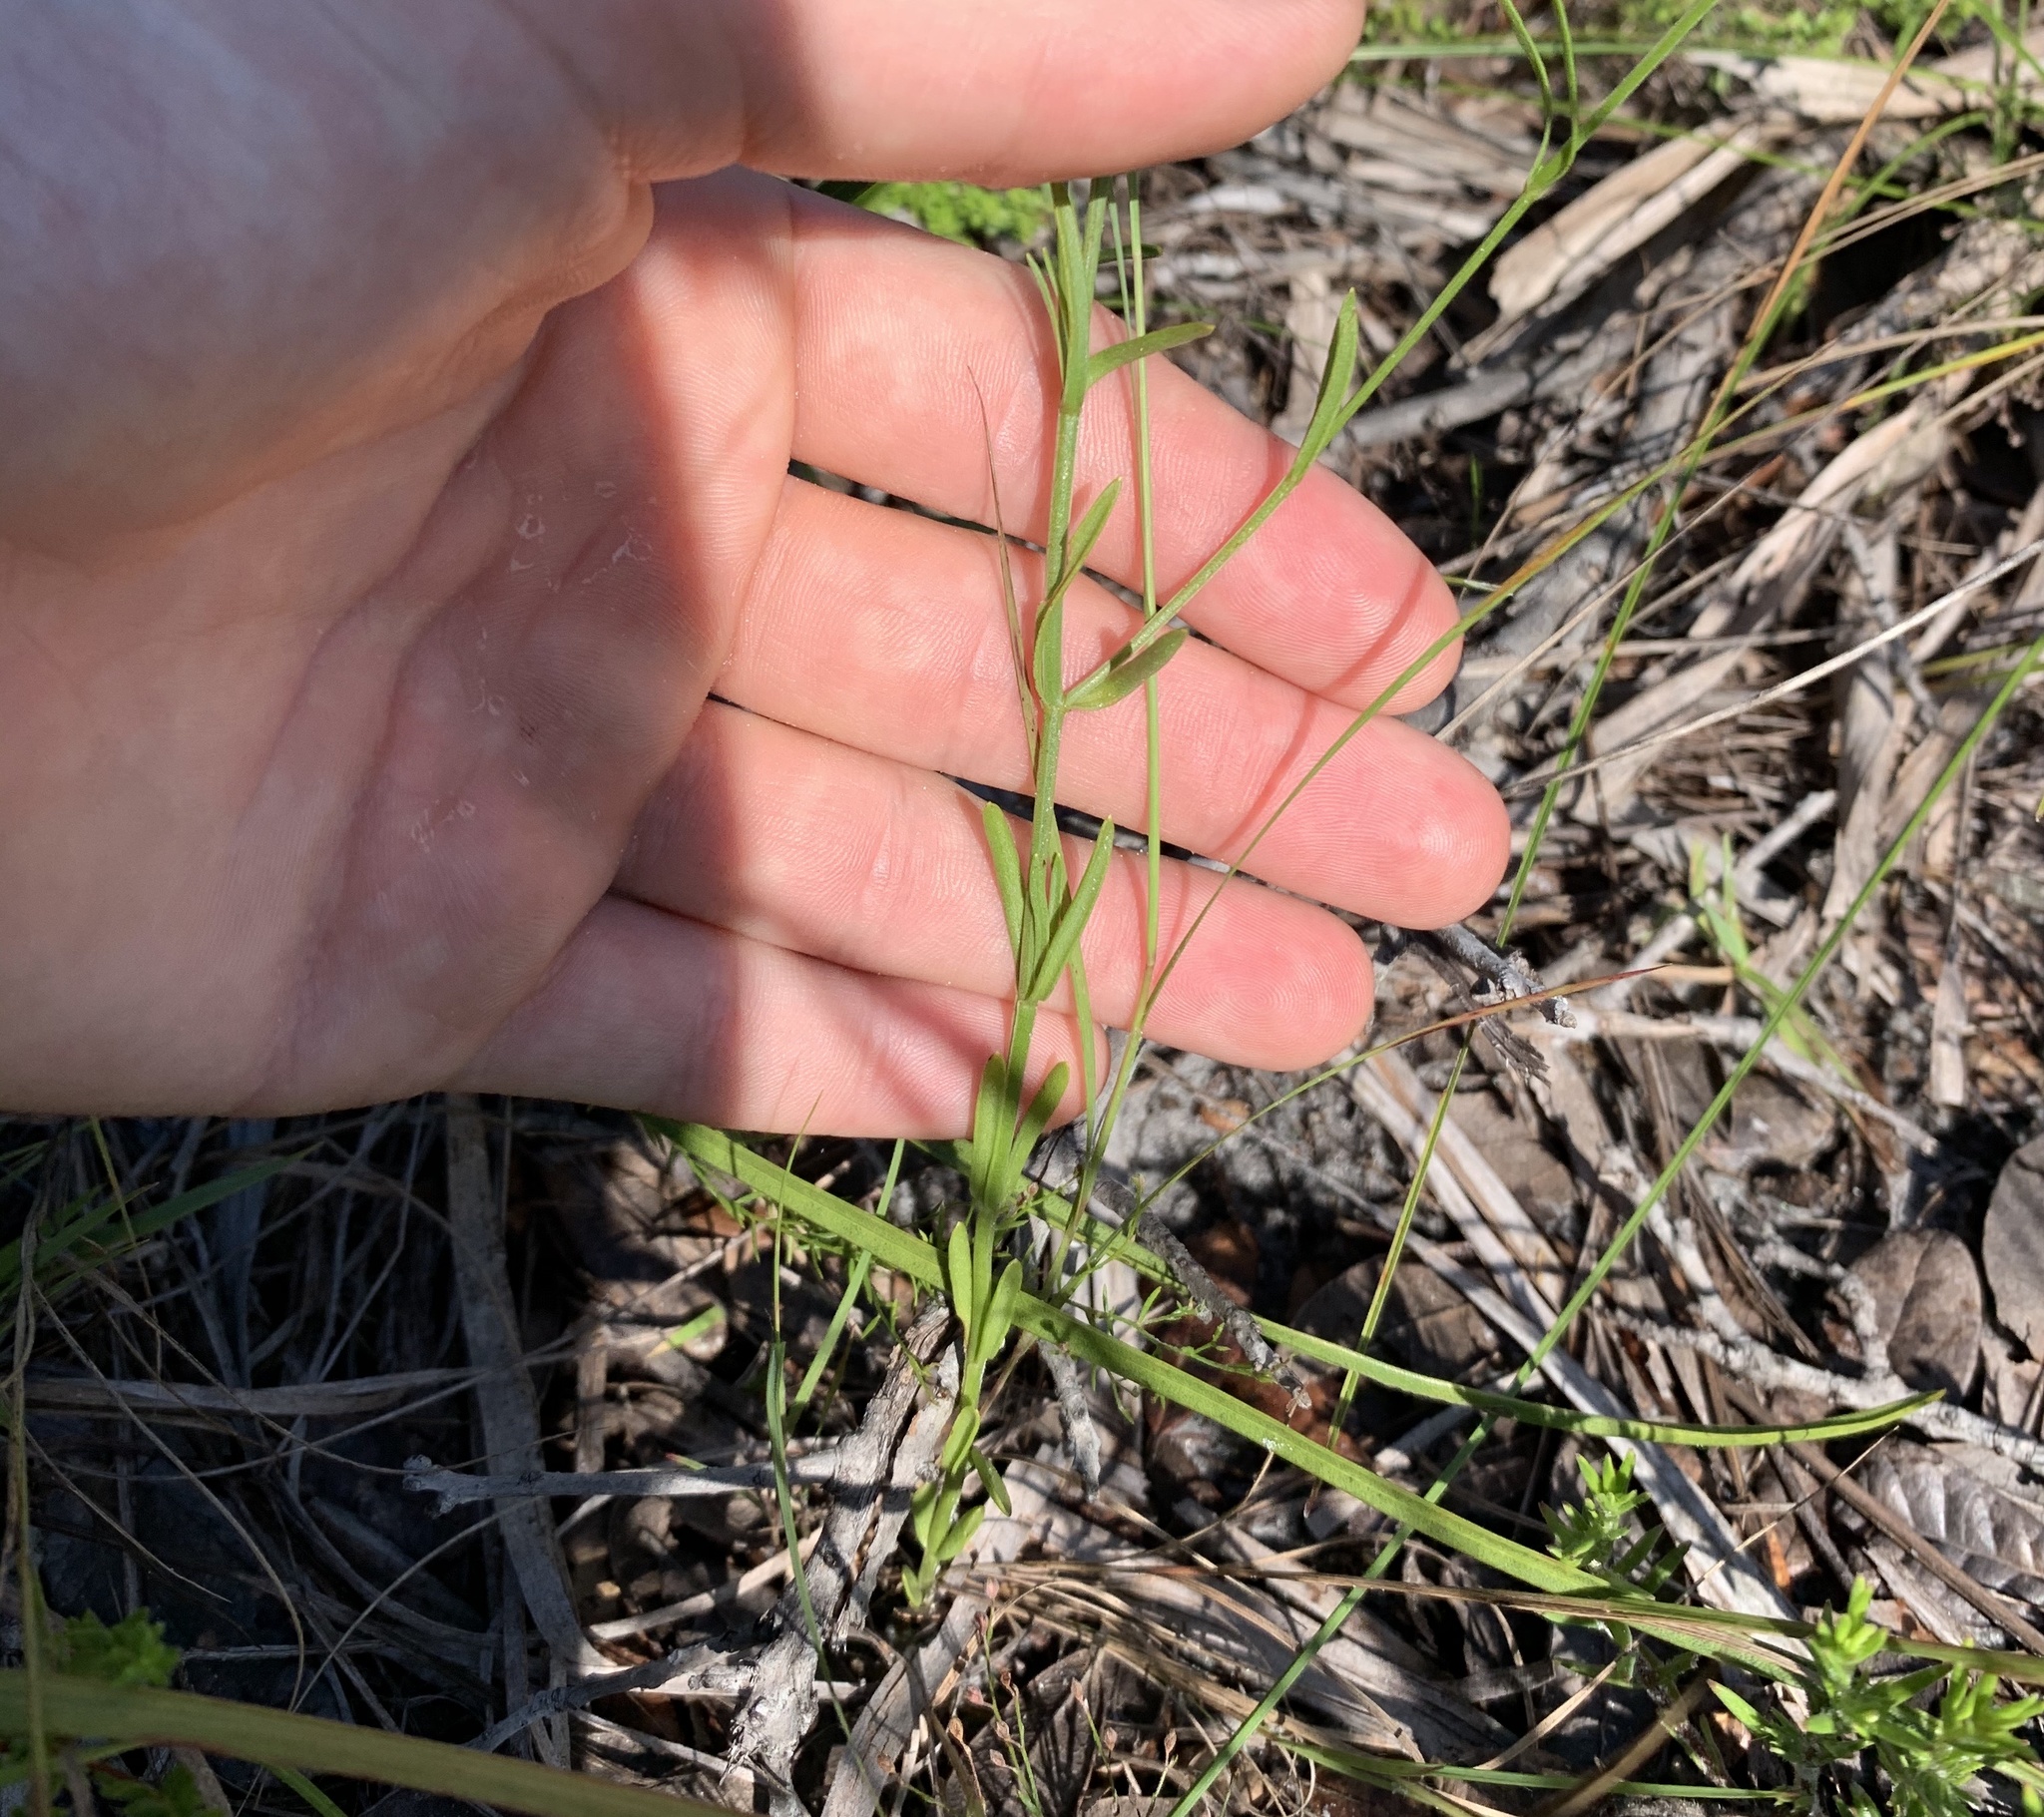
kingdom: Plantae
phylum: Tracheophyta
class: Magnoliopsida
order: Gentianales
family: Gentianaceae
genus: Sabatia
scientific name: Sabatia brevifolia
